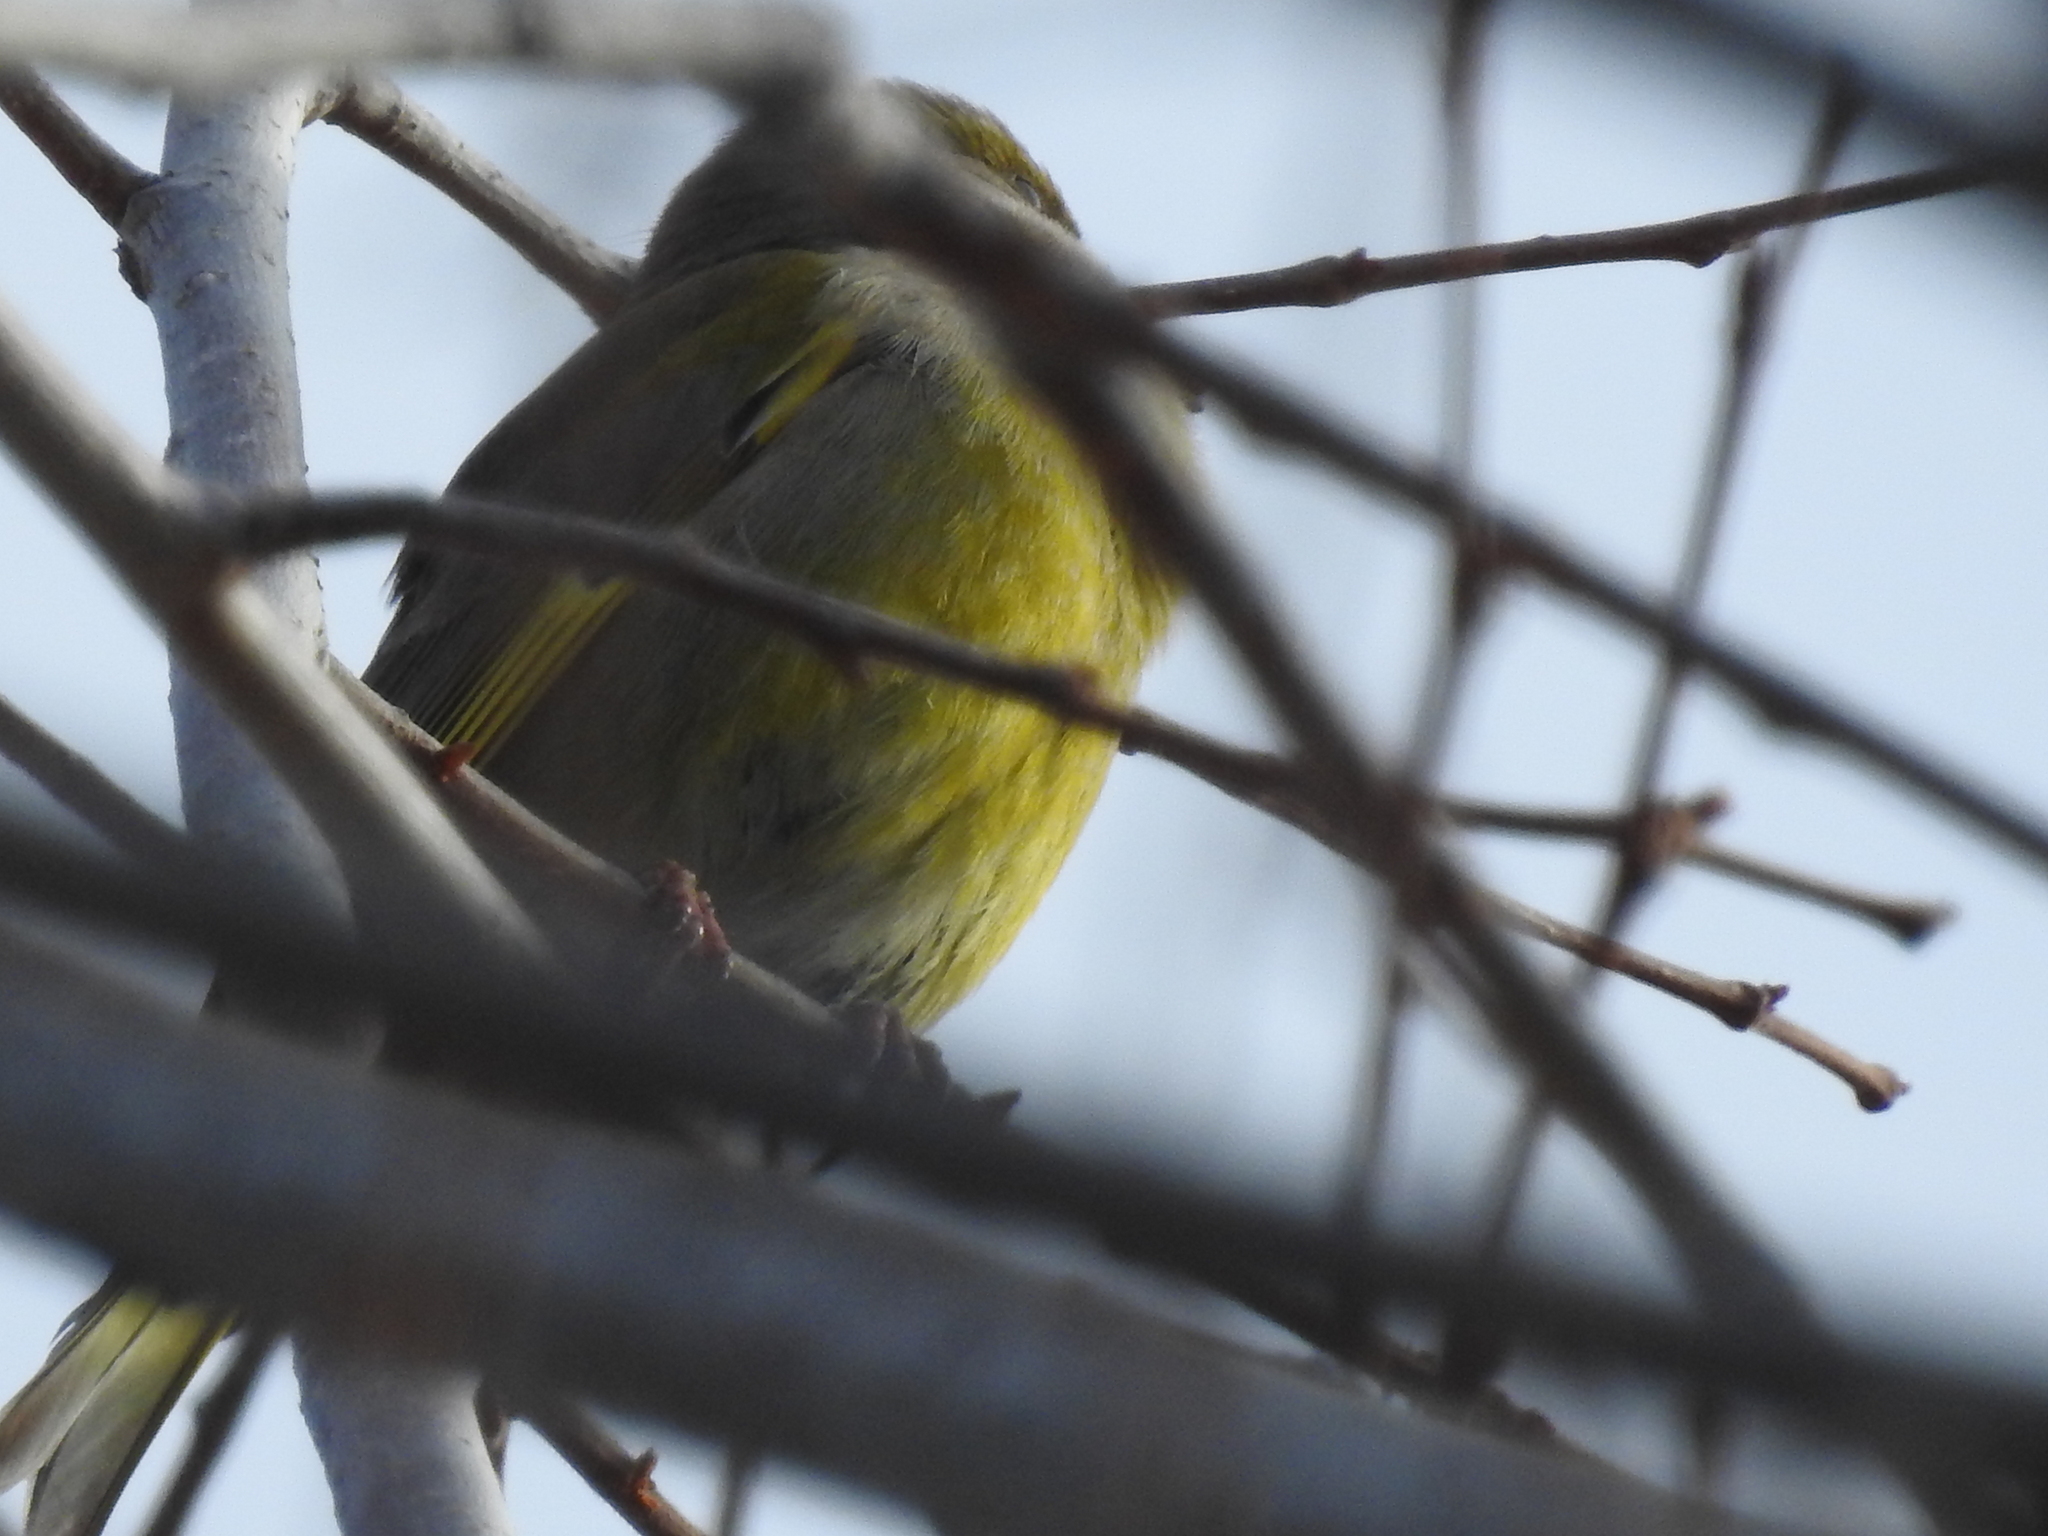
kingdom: Plantae
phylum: Tracheophyta
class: Liliopsida
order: Poales
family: Poaceae
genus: Chloris
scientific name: Chloris chloris
